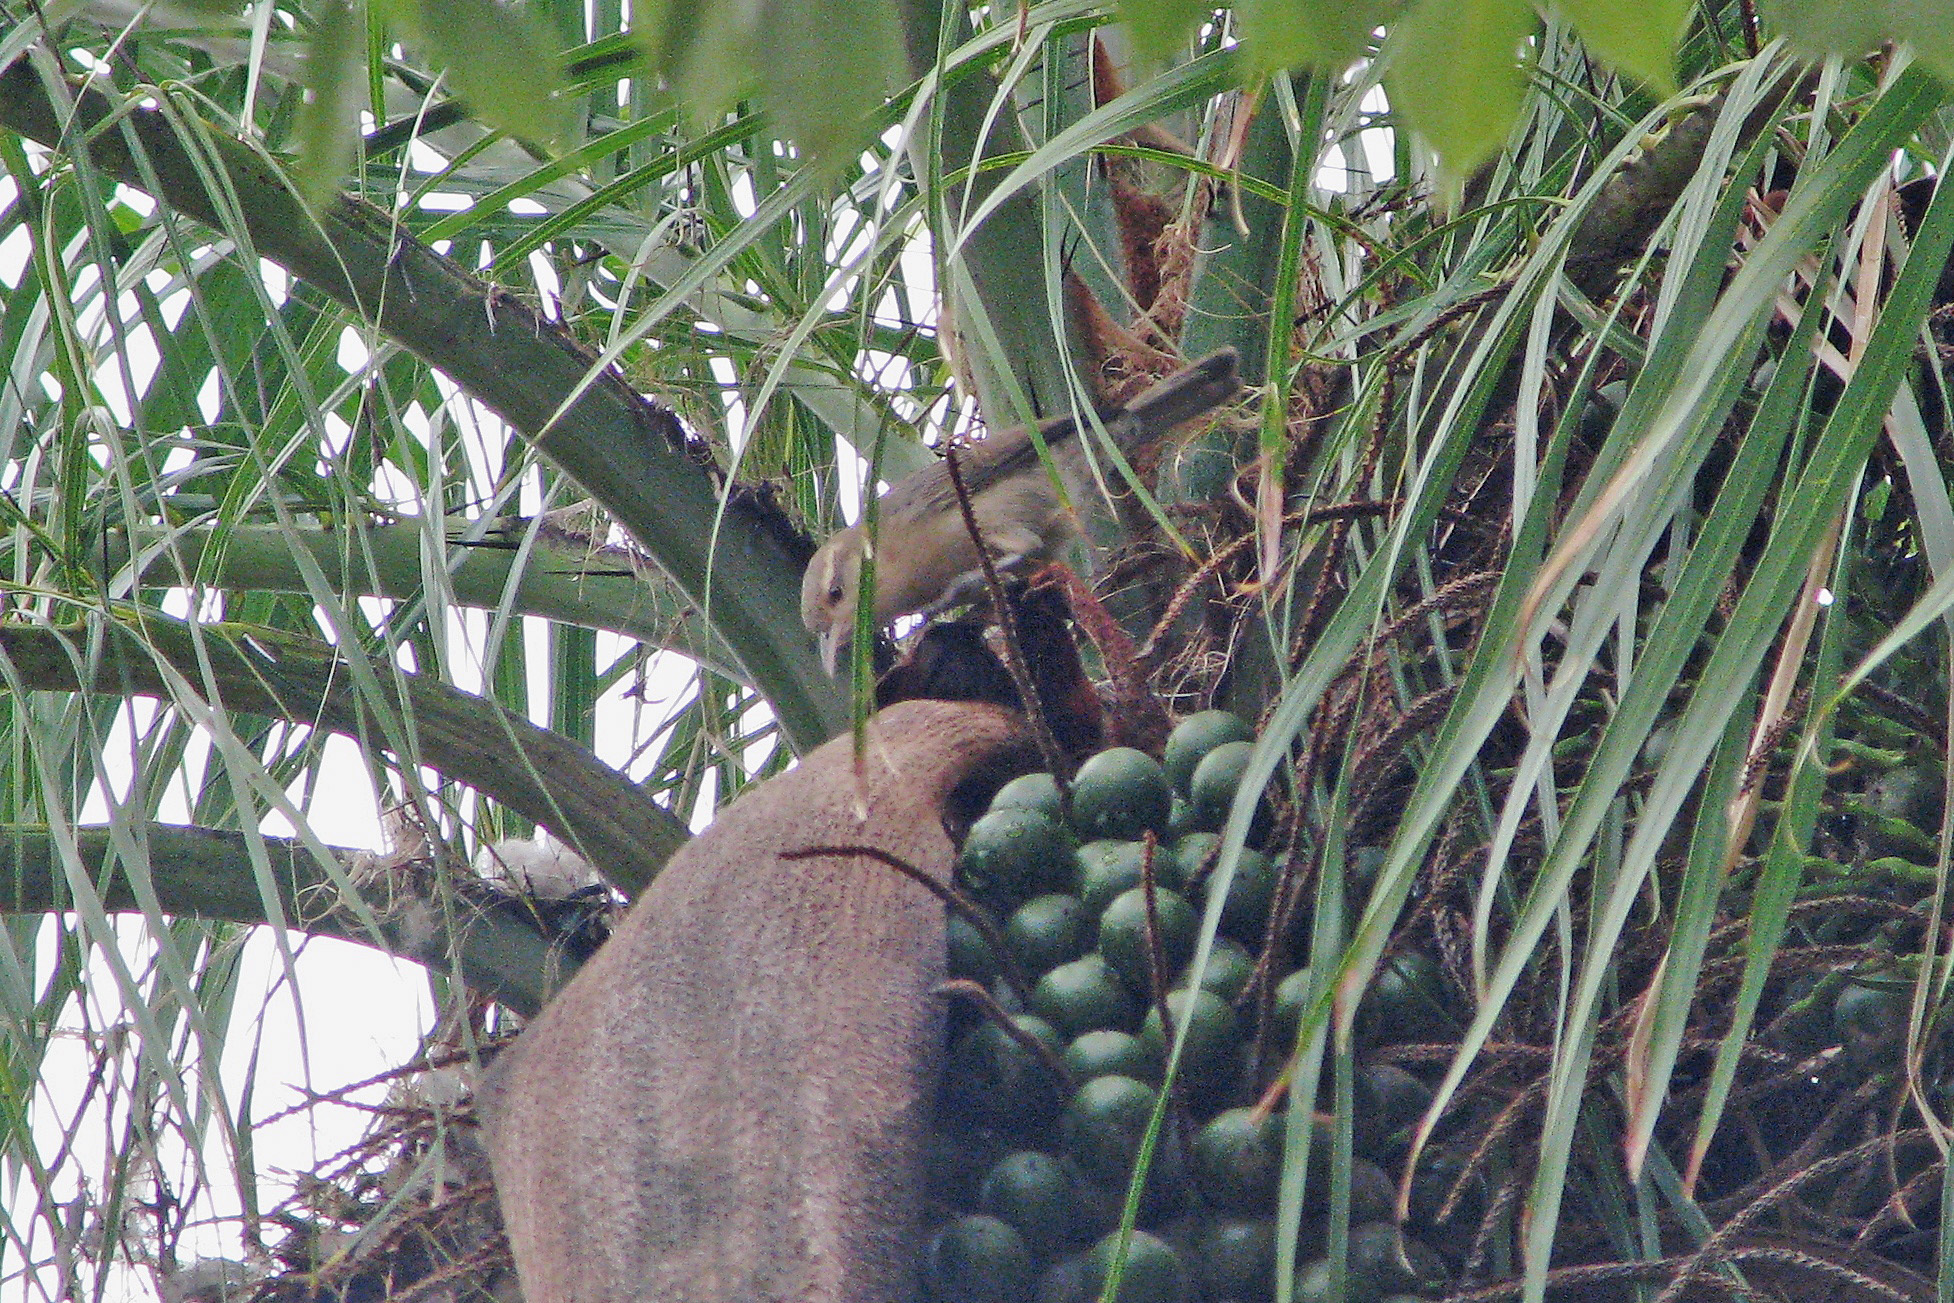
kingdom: Animalia
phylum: Chordata
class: Aves
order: Passeriformes
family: Troglodytidae
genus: Campylorhynchus
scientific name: Campylorhynchus turdinus
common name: Thrush-like wren
